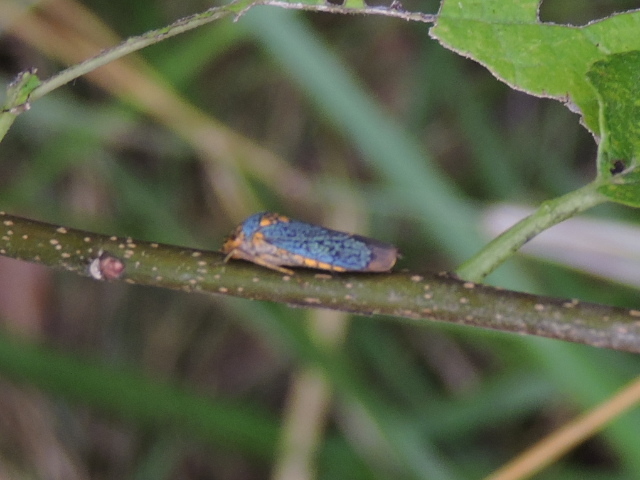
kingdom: Animalia
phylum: Arthropoda
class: Insecta
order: Hemiptera
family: Cicadellidae
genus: Oncometopia
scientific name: Oncometopia orbona
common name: Broad-headed sharpshooter
